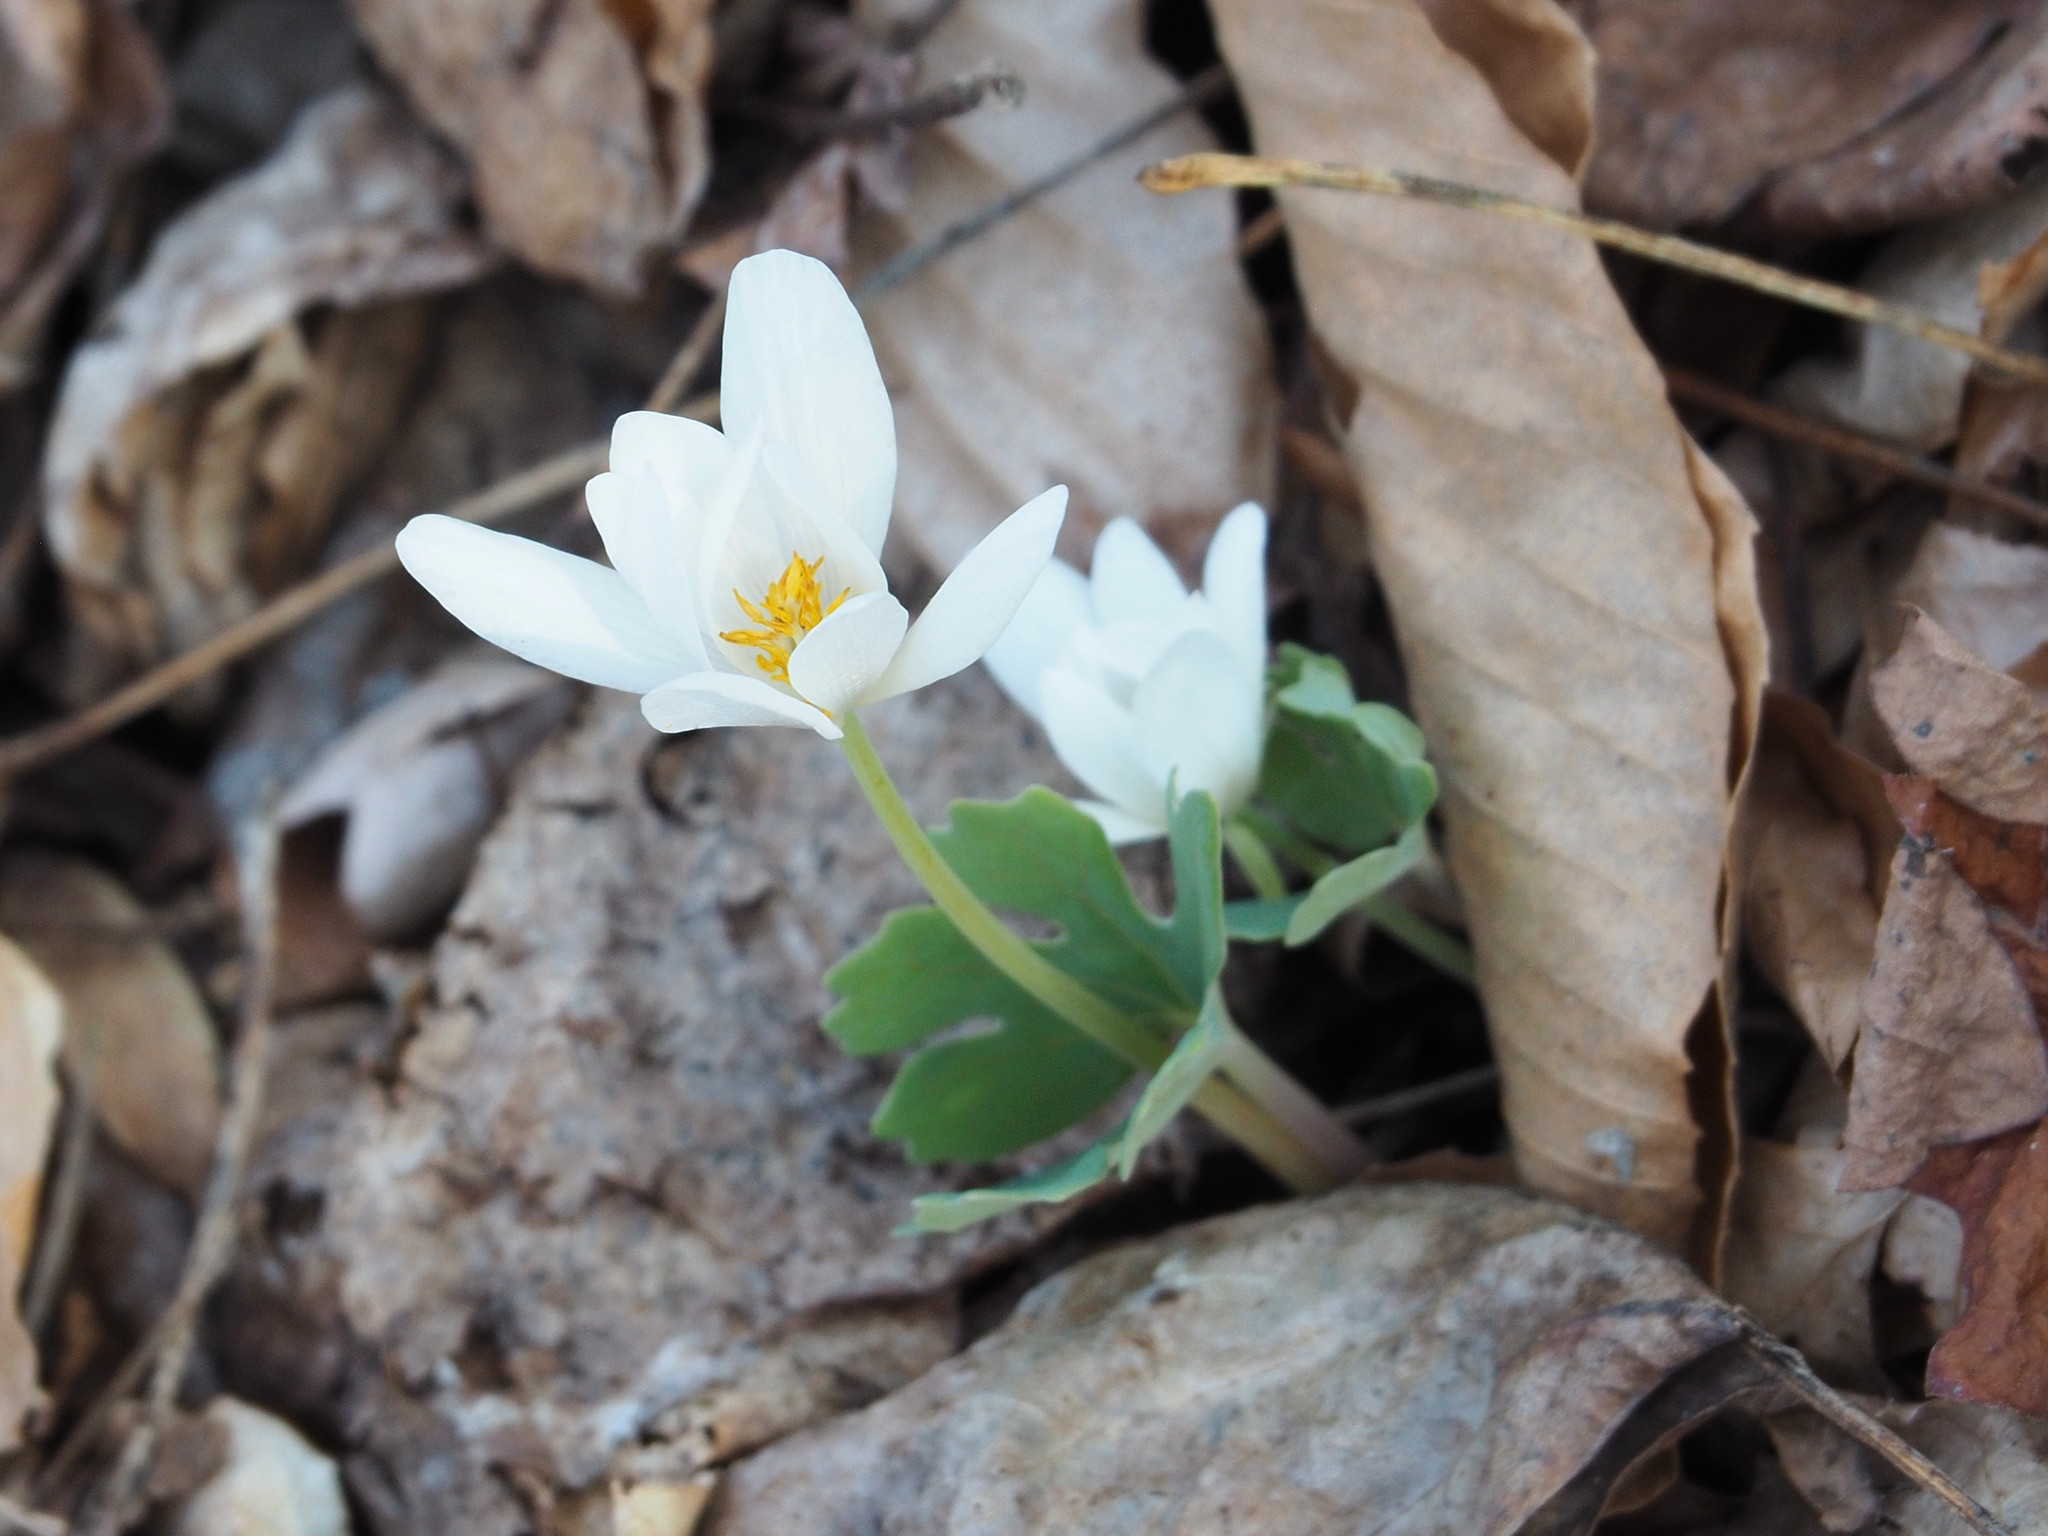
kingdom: Plantae
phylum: Tracheophyta
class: Magnoliopsida
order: Ranunculales
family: Papaveraceae
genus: Sanguinaria
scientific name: Sanguinaria canadensis
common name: Bloodroot
